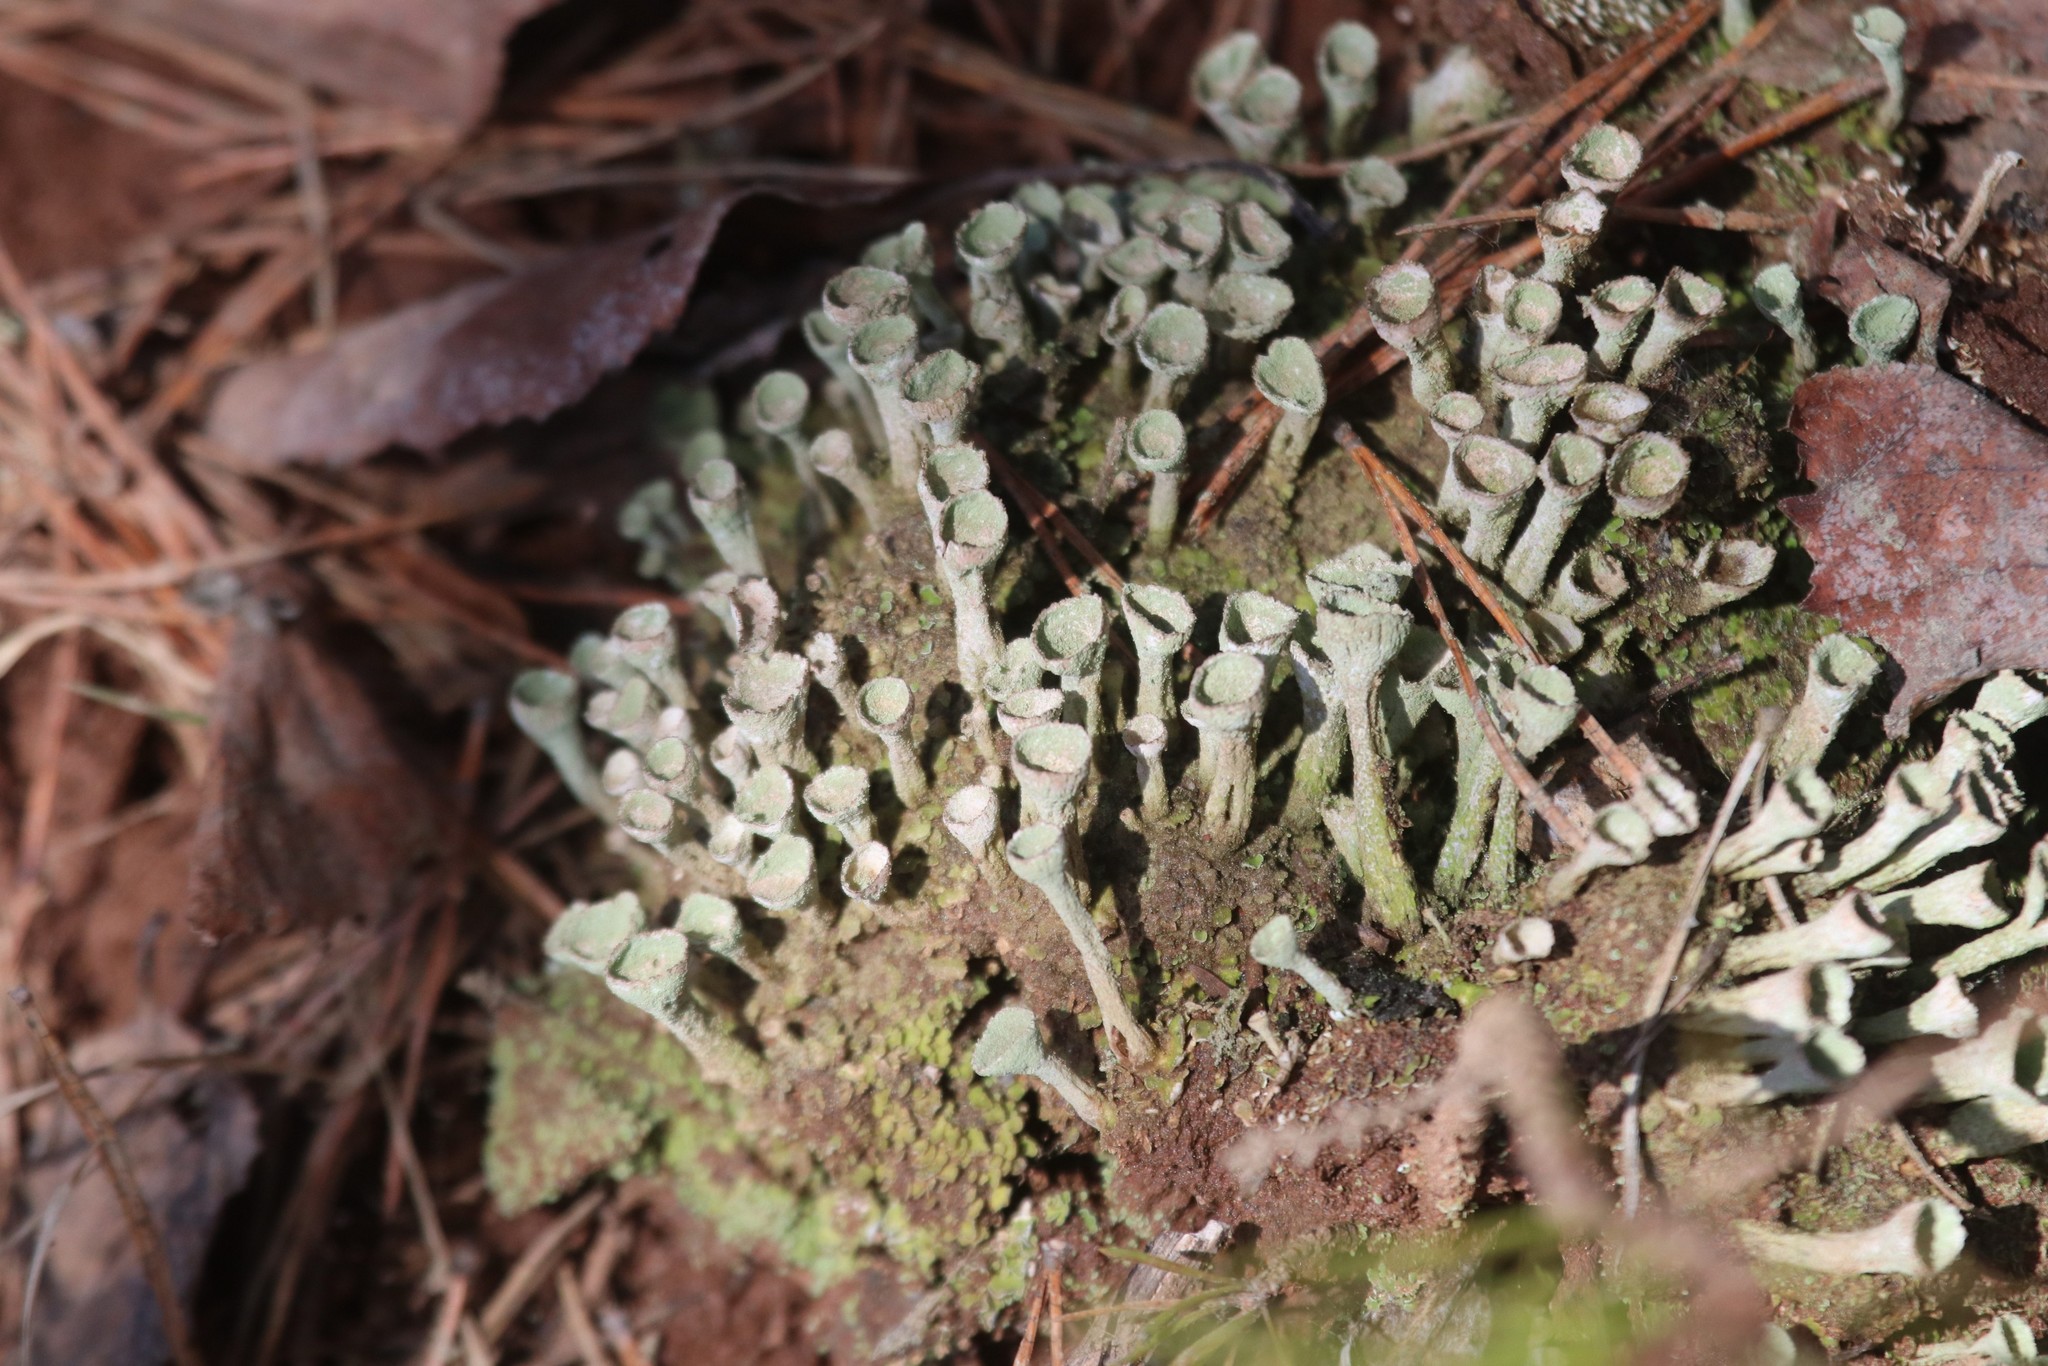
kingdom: Fungi
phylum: Ascomycota
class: Lecanoromycetes
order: Lecanorales
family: Cladoniaceae
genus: Cladonia
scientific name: Cladonia fimbriata
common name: Powdered trumpet lichen
